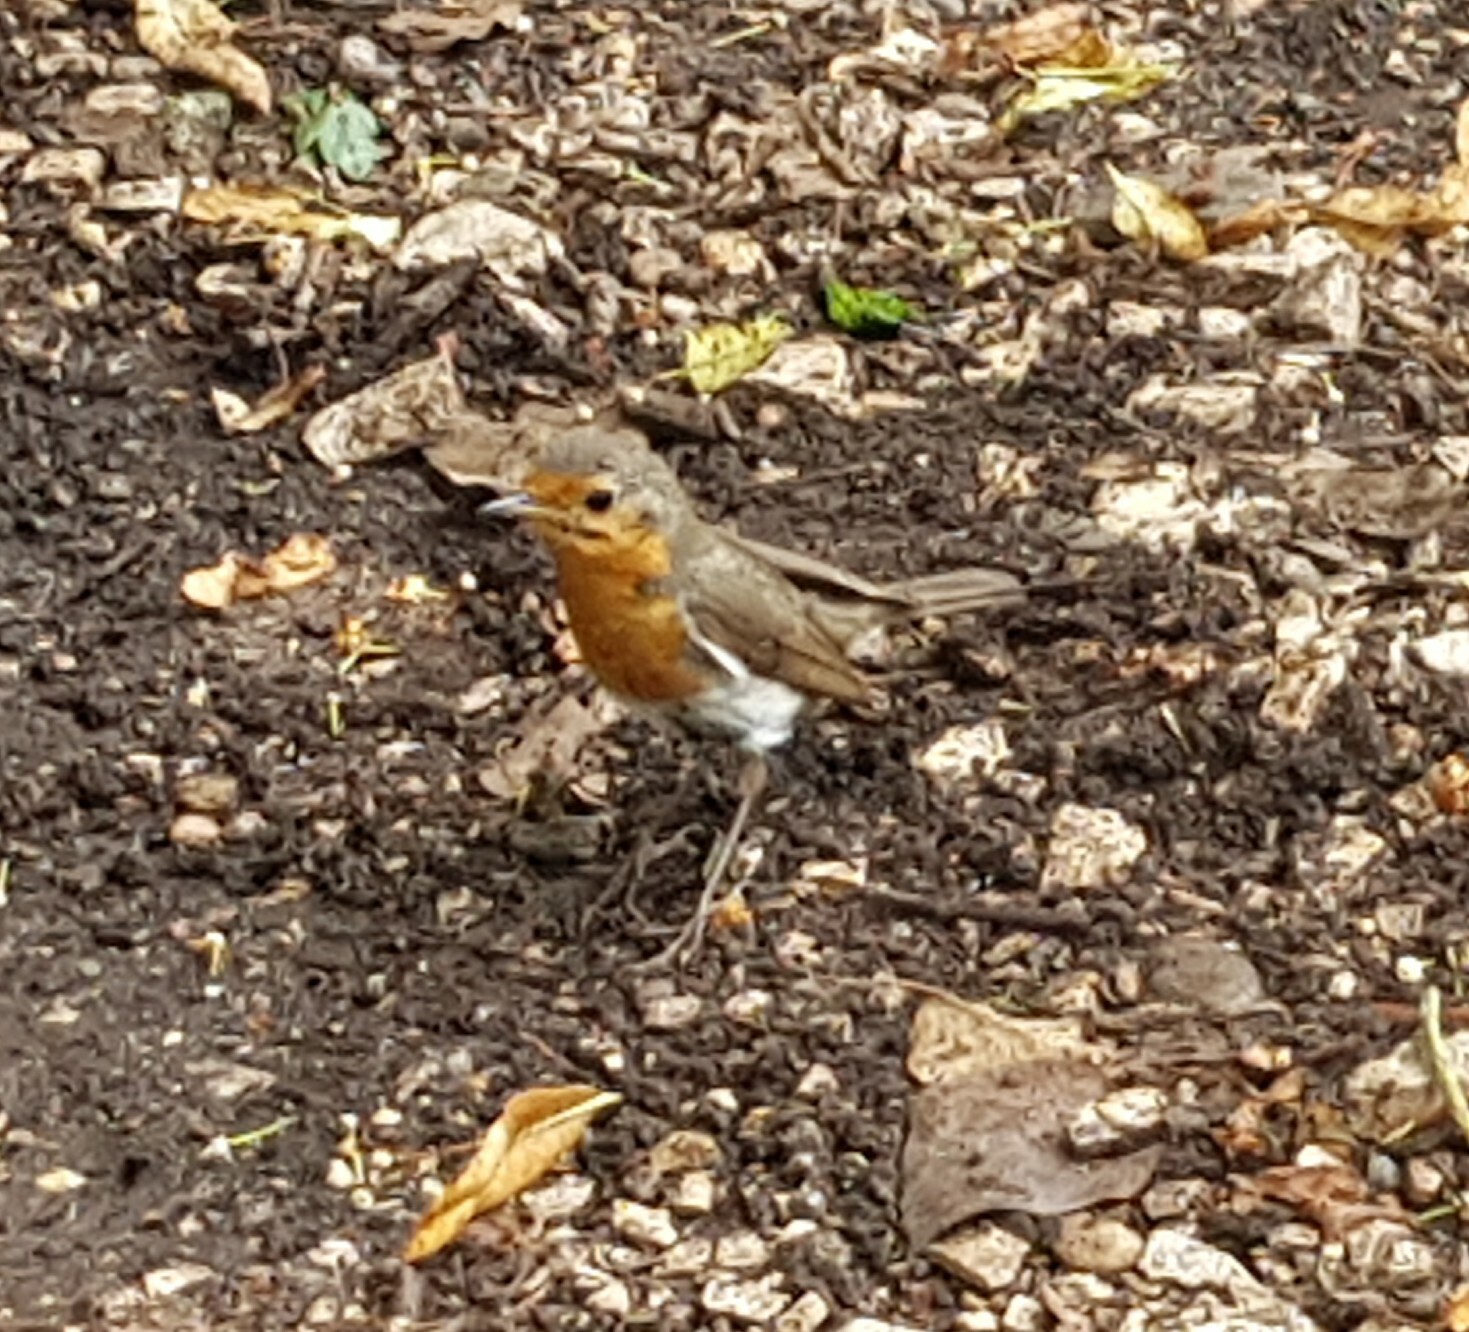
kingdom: Animalia
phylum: Chordata
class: Aves
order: Passeriformes
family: Muscicapidae
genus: Erithacus
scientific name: Erithacus rubecula
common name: European robin
